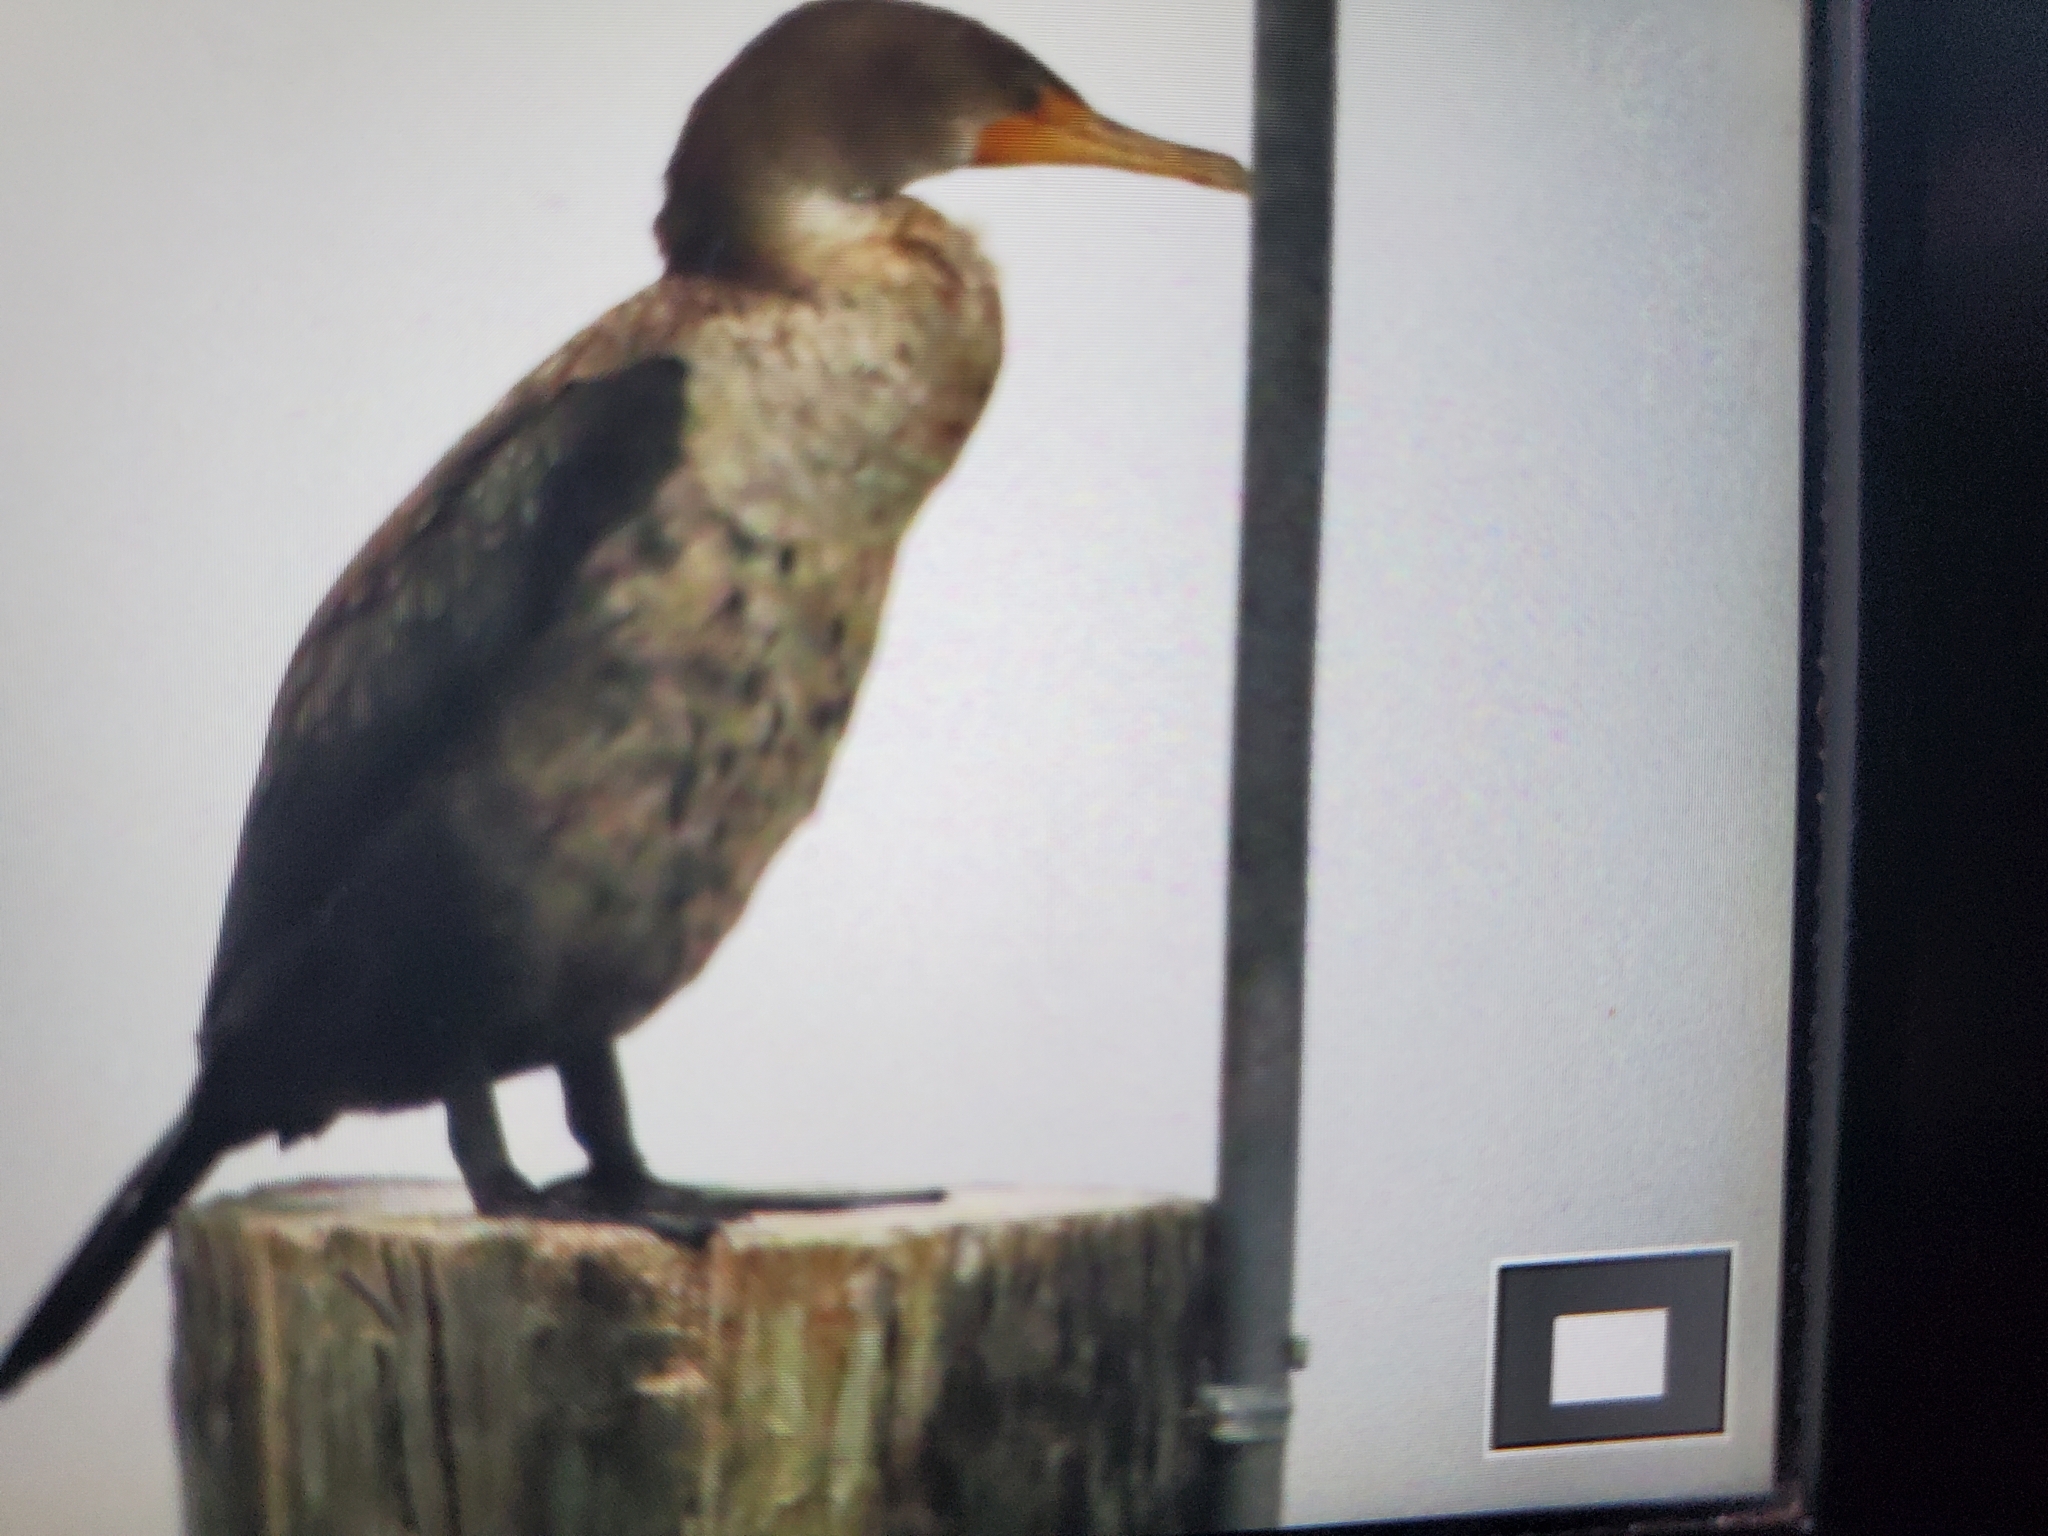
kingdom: Animalia
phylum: Chordata
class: Aves
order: Suliformes
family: Phalacrocoracidae
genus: Phalacrocorax
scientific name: Phalacrocorax auritus
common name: Double-crested cormorant
